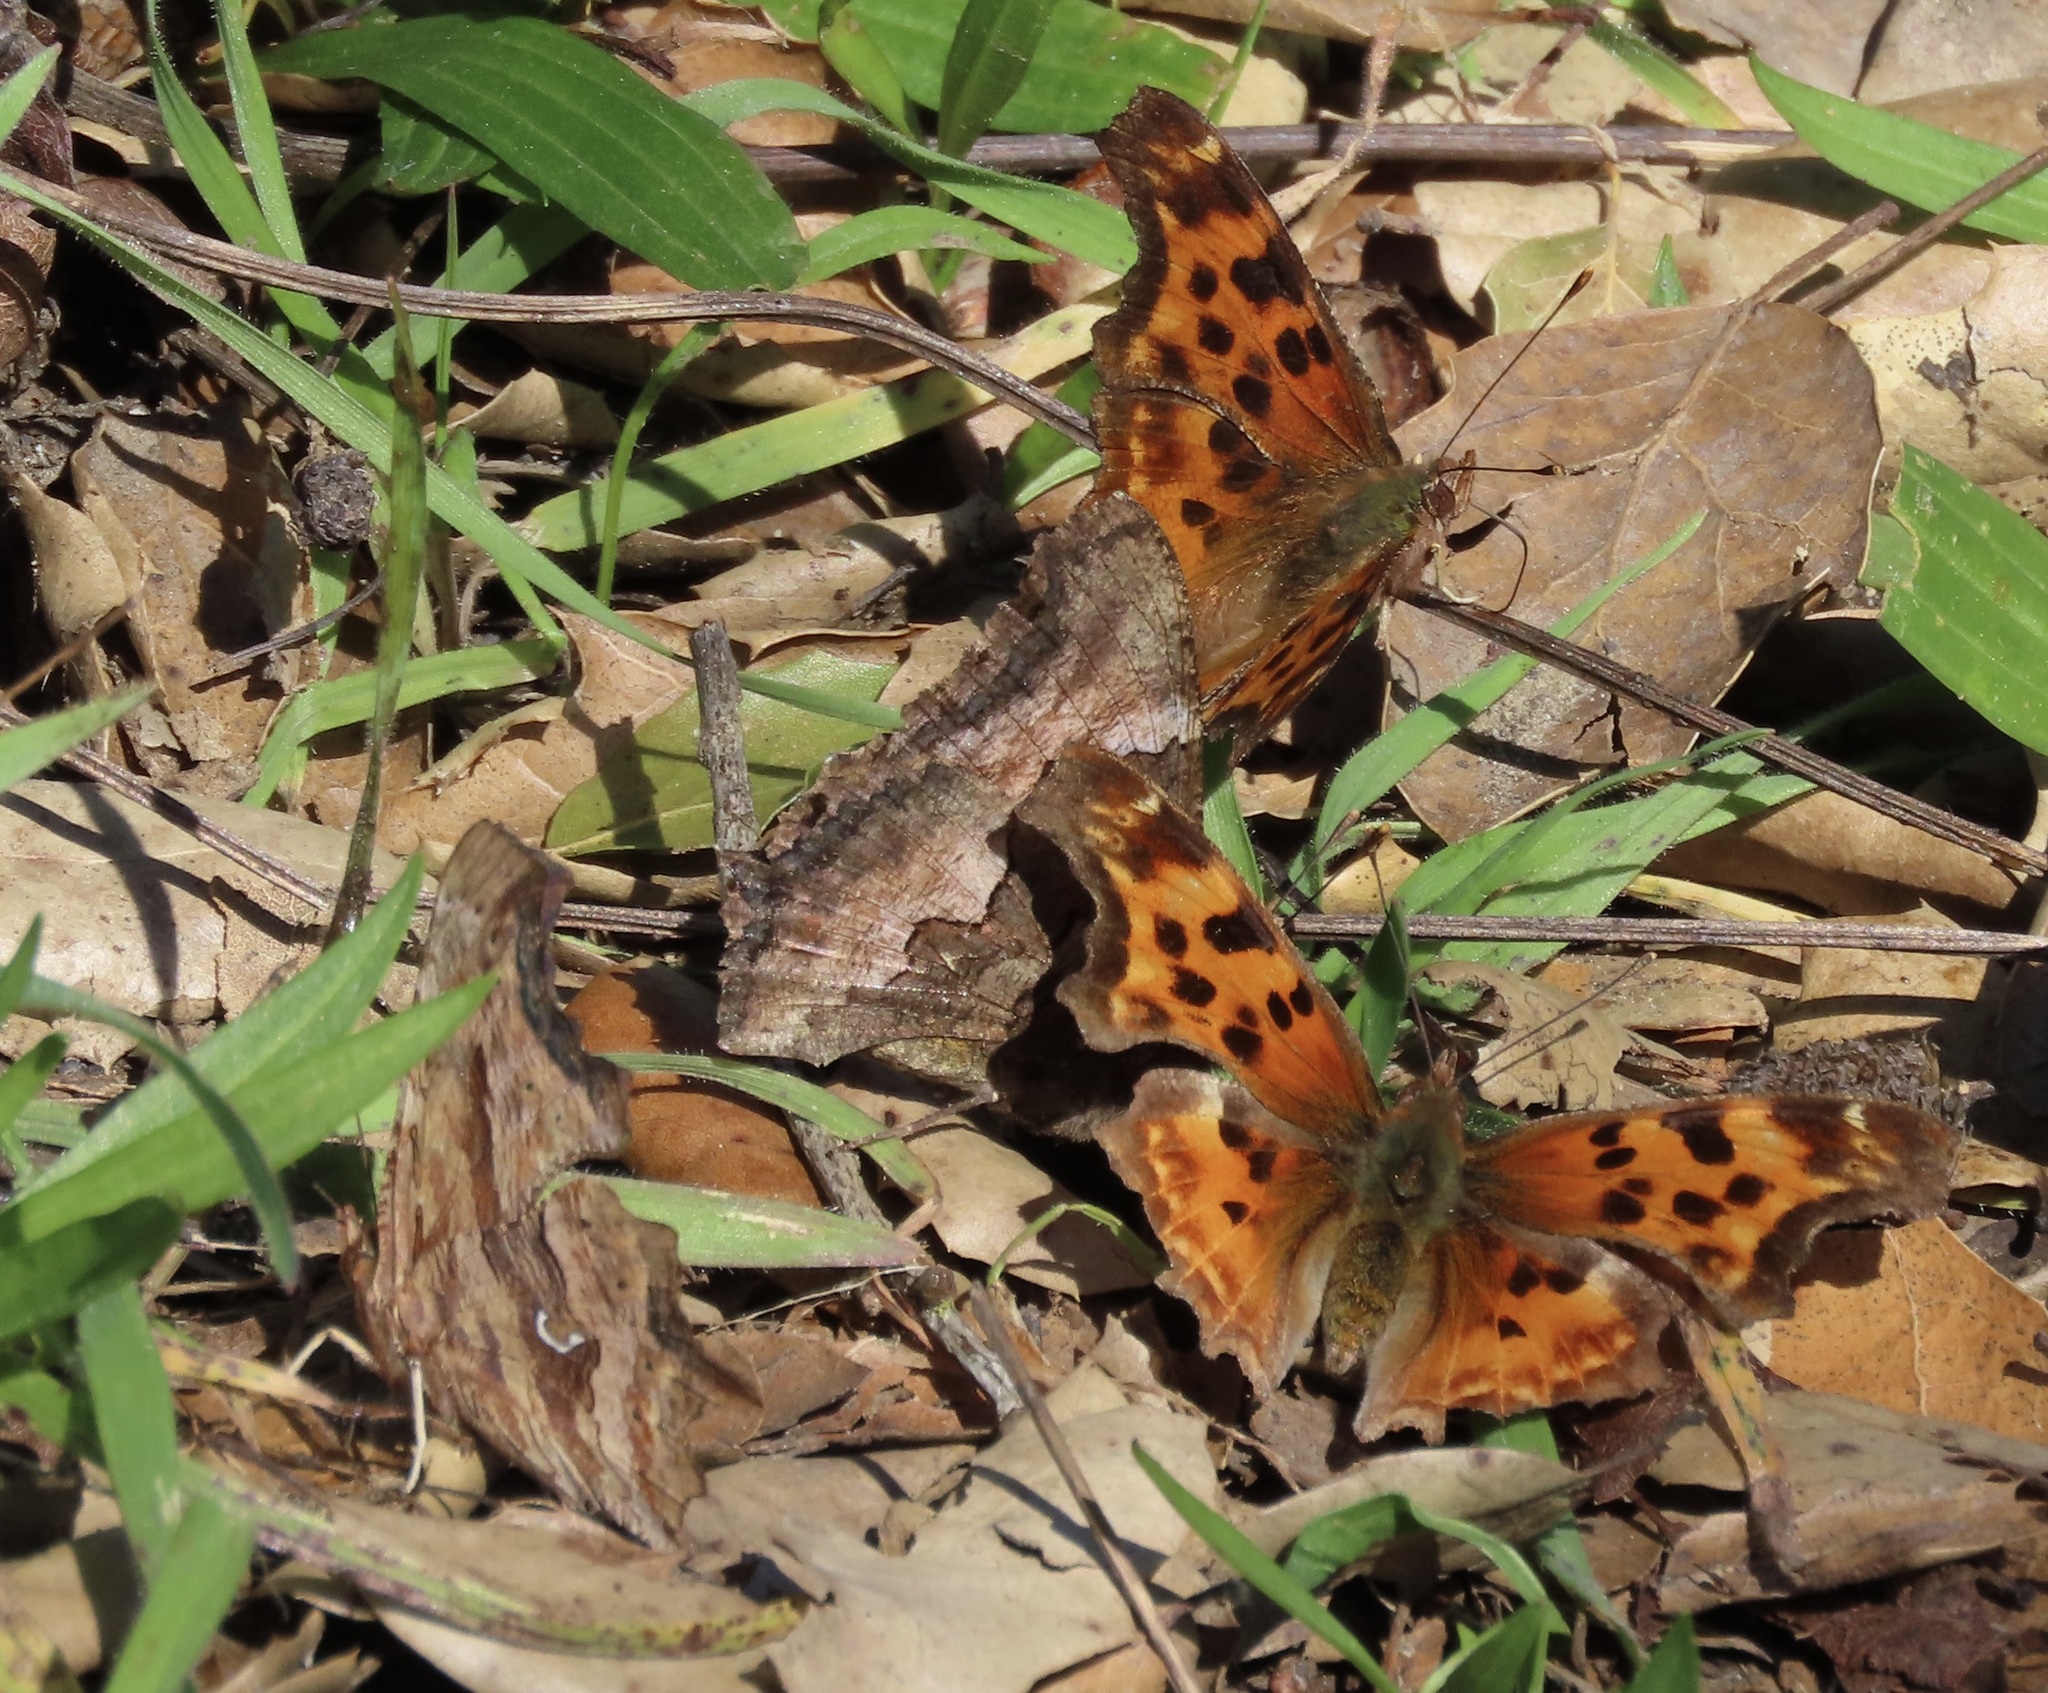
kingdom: Animalia
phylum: Arthropoda
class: Insecta
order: Lepidoptera
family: Nymphalidae
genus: Nymphalis
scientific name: Nymphalis californica
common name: California tortoiseshell
